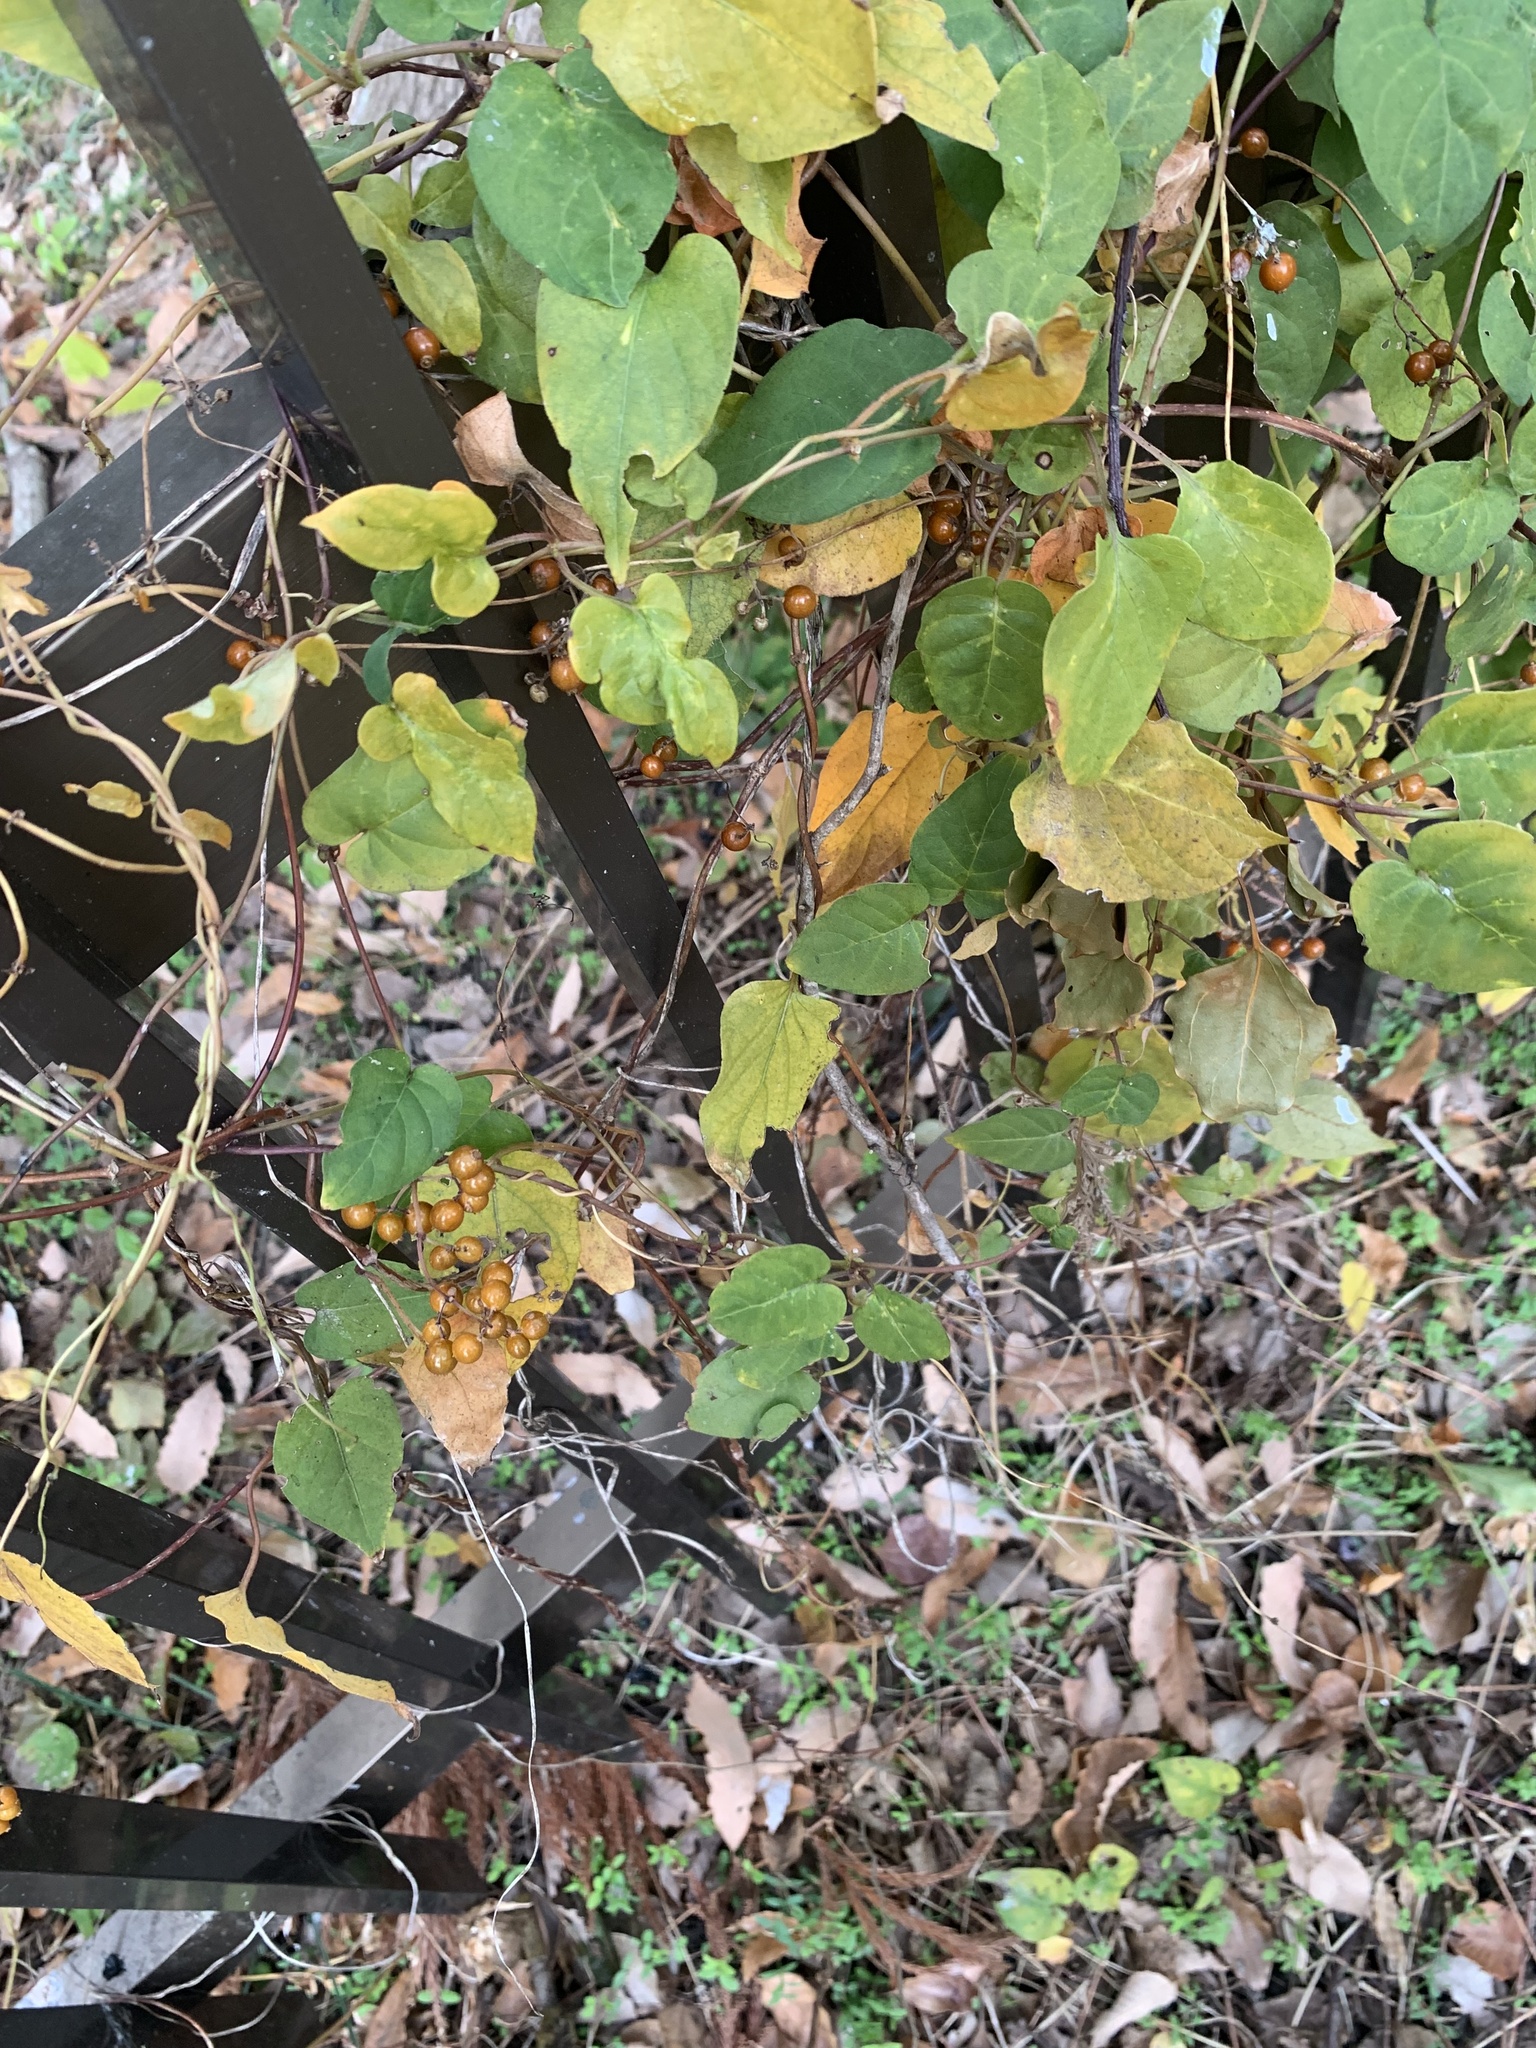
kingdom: Plantae
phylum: Tracheophyta
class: Magnoliopsida
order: Gentianales
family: Rubiaceae
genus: Paederia
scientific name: Paederia foetida
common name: Stinkvine
